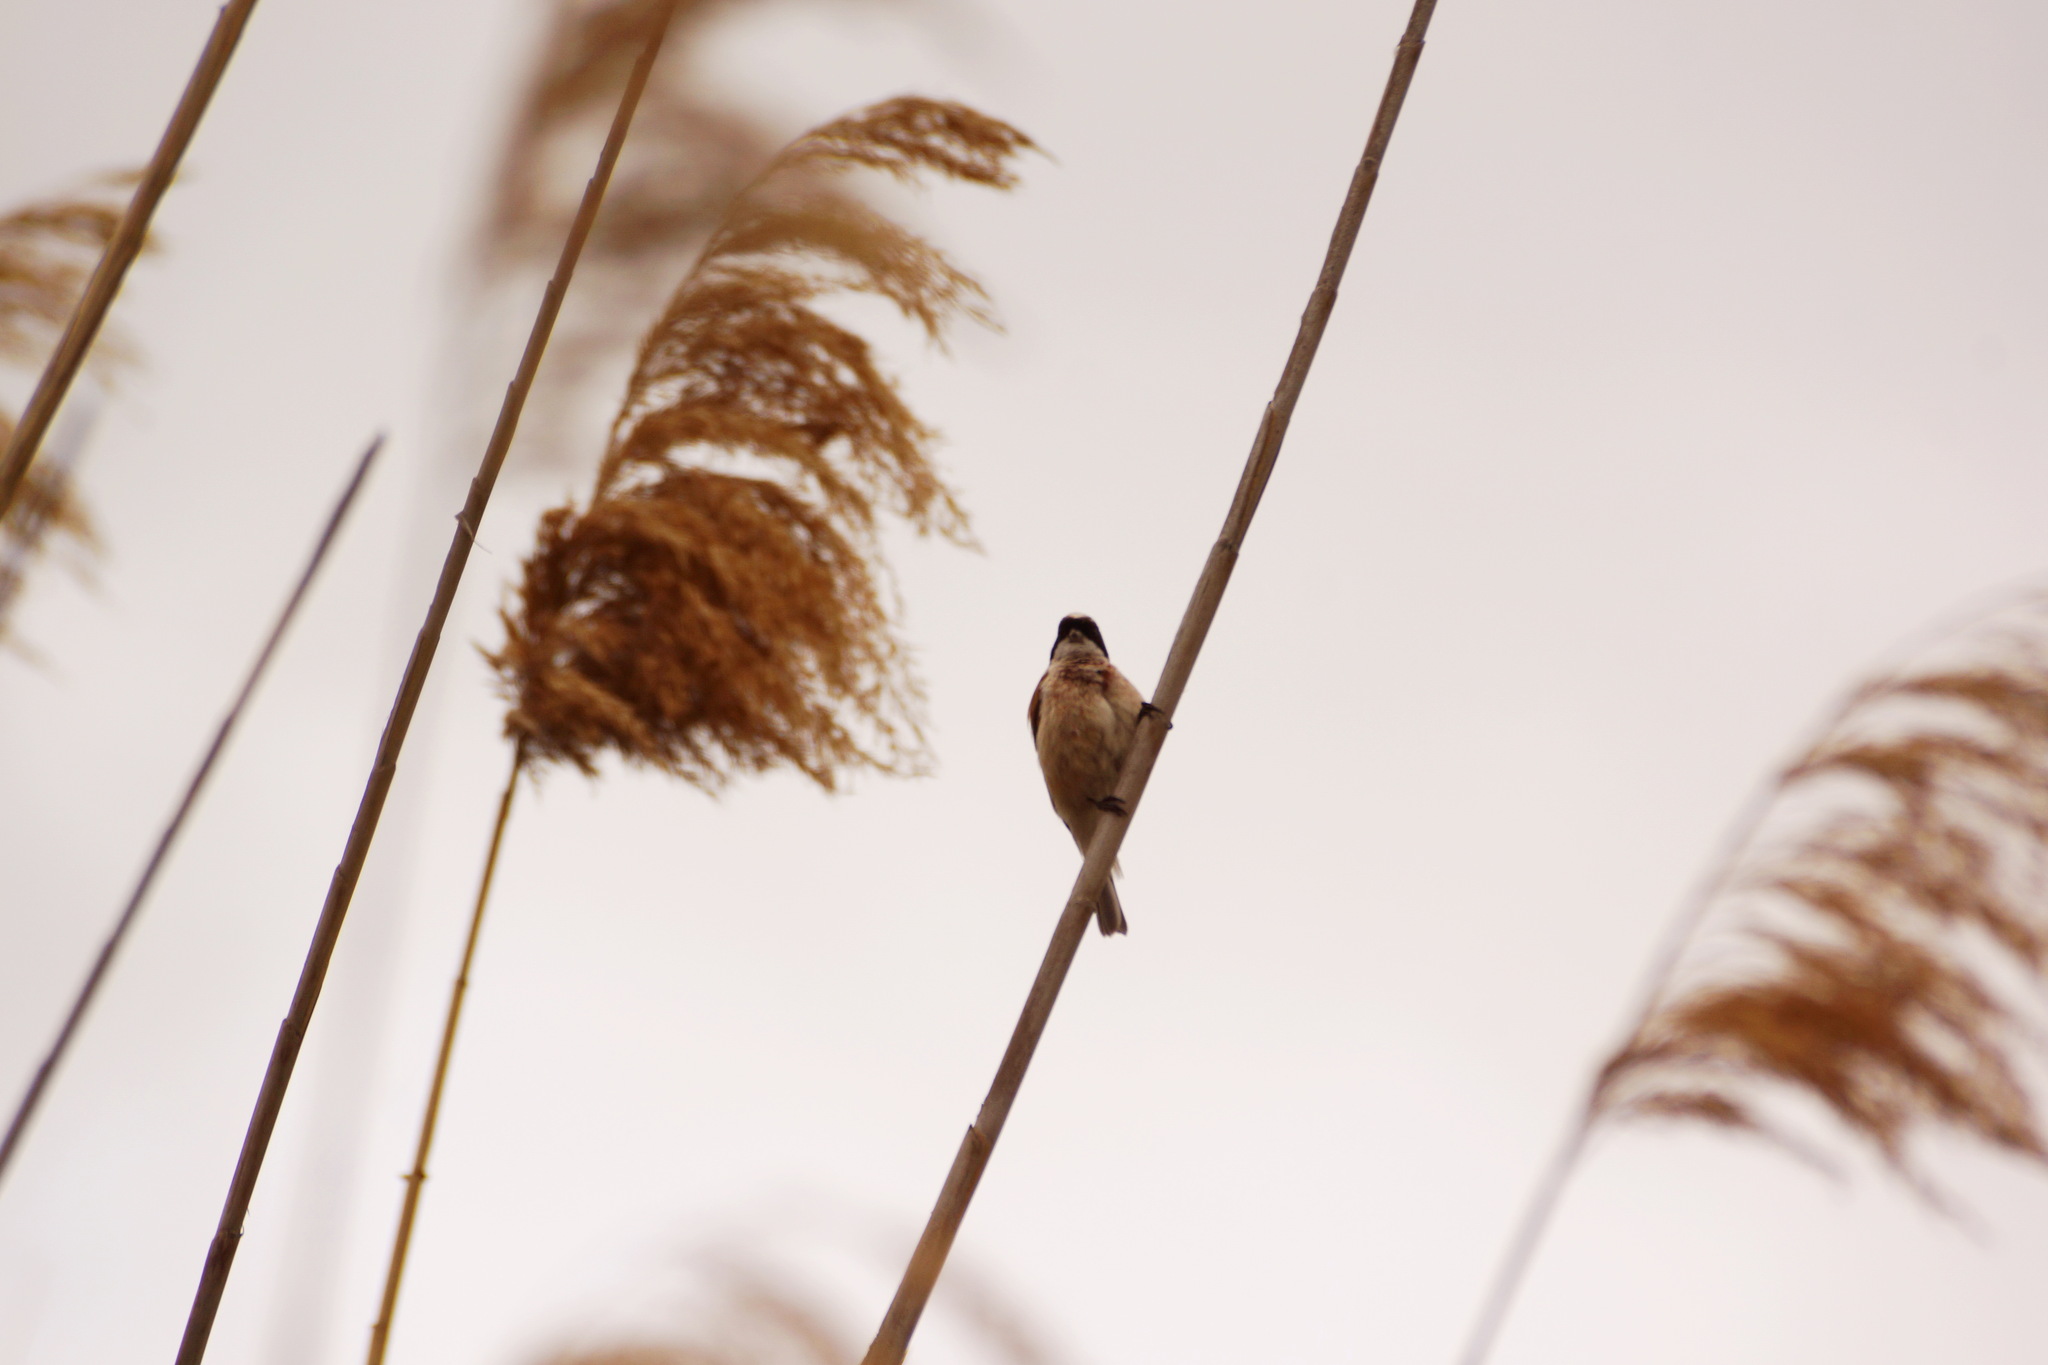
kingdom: Animalia
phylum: Chordata
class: Aves
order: Passeriformes
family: Remizidae
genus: Remiz
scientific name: Remiz pendulinus
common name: Eurasian penduline tit
